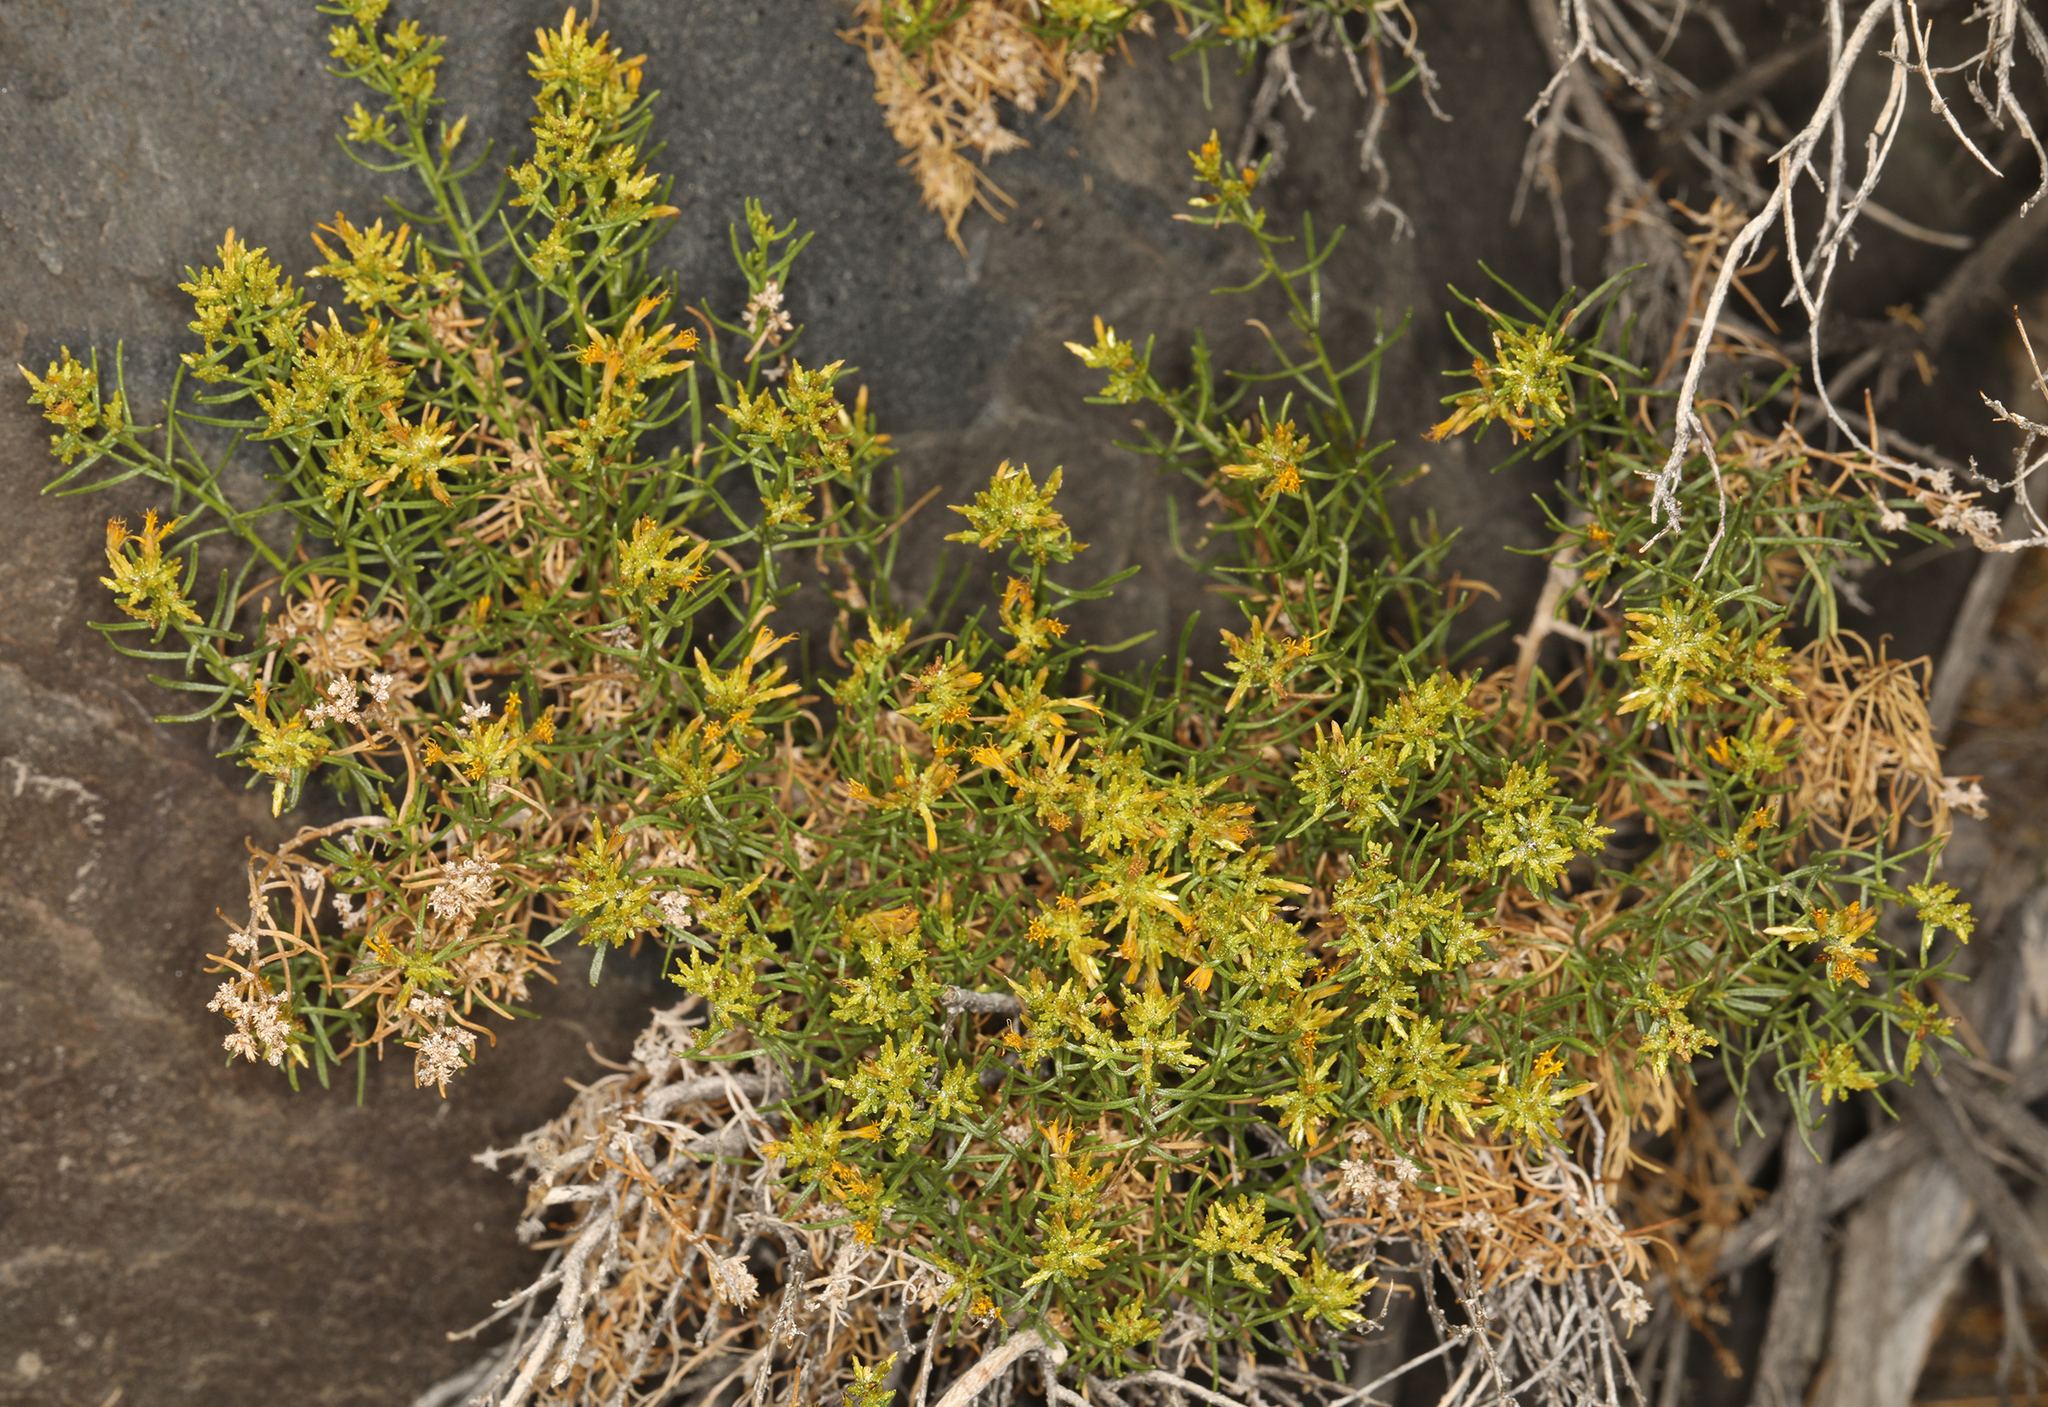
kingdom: Plantae
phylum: Tracheophyta
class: Magnoliopsida
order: Asterales
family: Asteraceae
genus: Ericameria
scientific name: Ericameria teretifolia
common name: Round-leaf rabbitbrush
